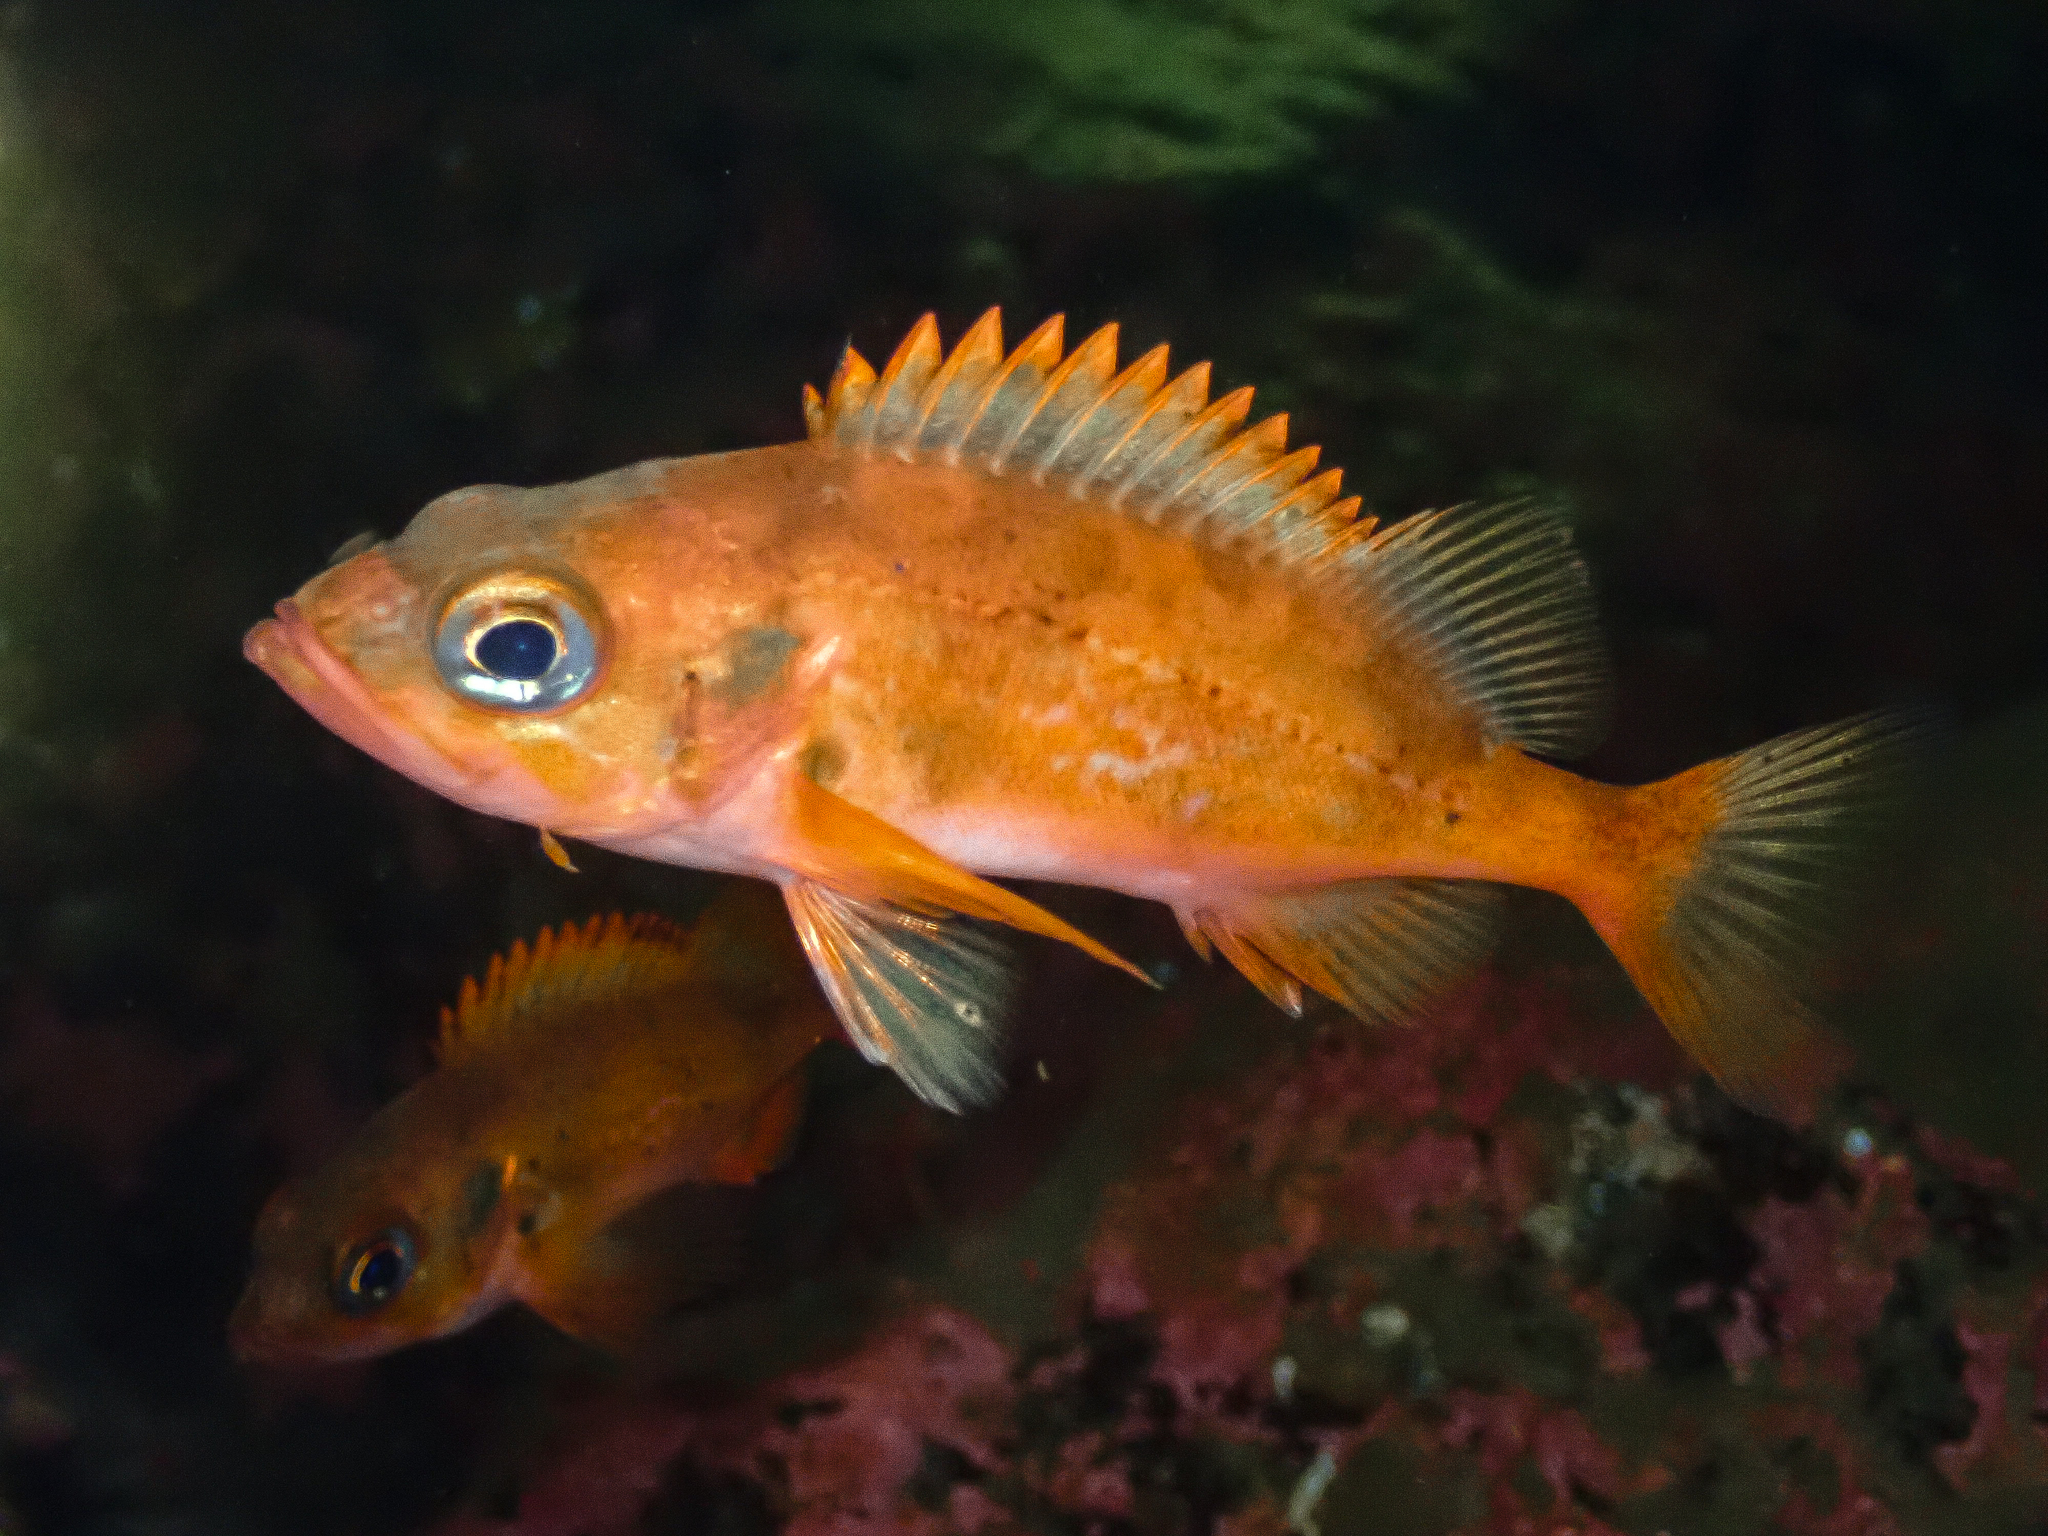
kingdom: Animalia
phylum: Chordata
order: Scorpaeniformes
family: Sebastidae
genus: Sebastes
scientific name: Sebastes viviparus
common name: Norway haddock
